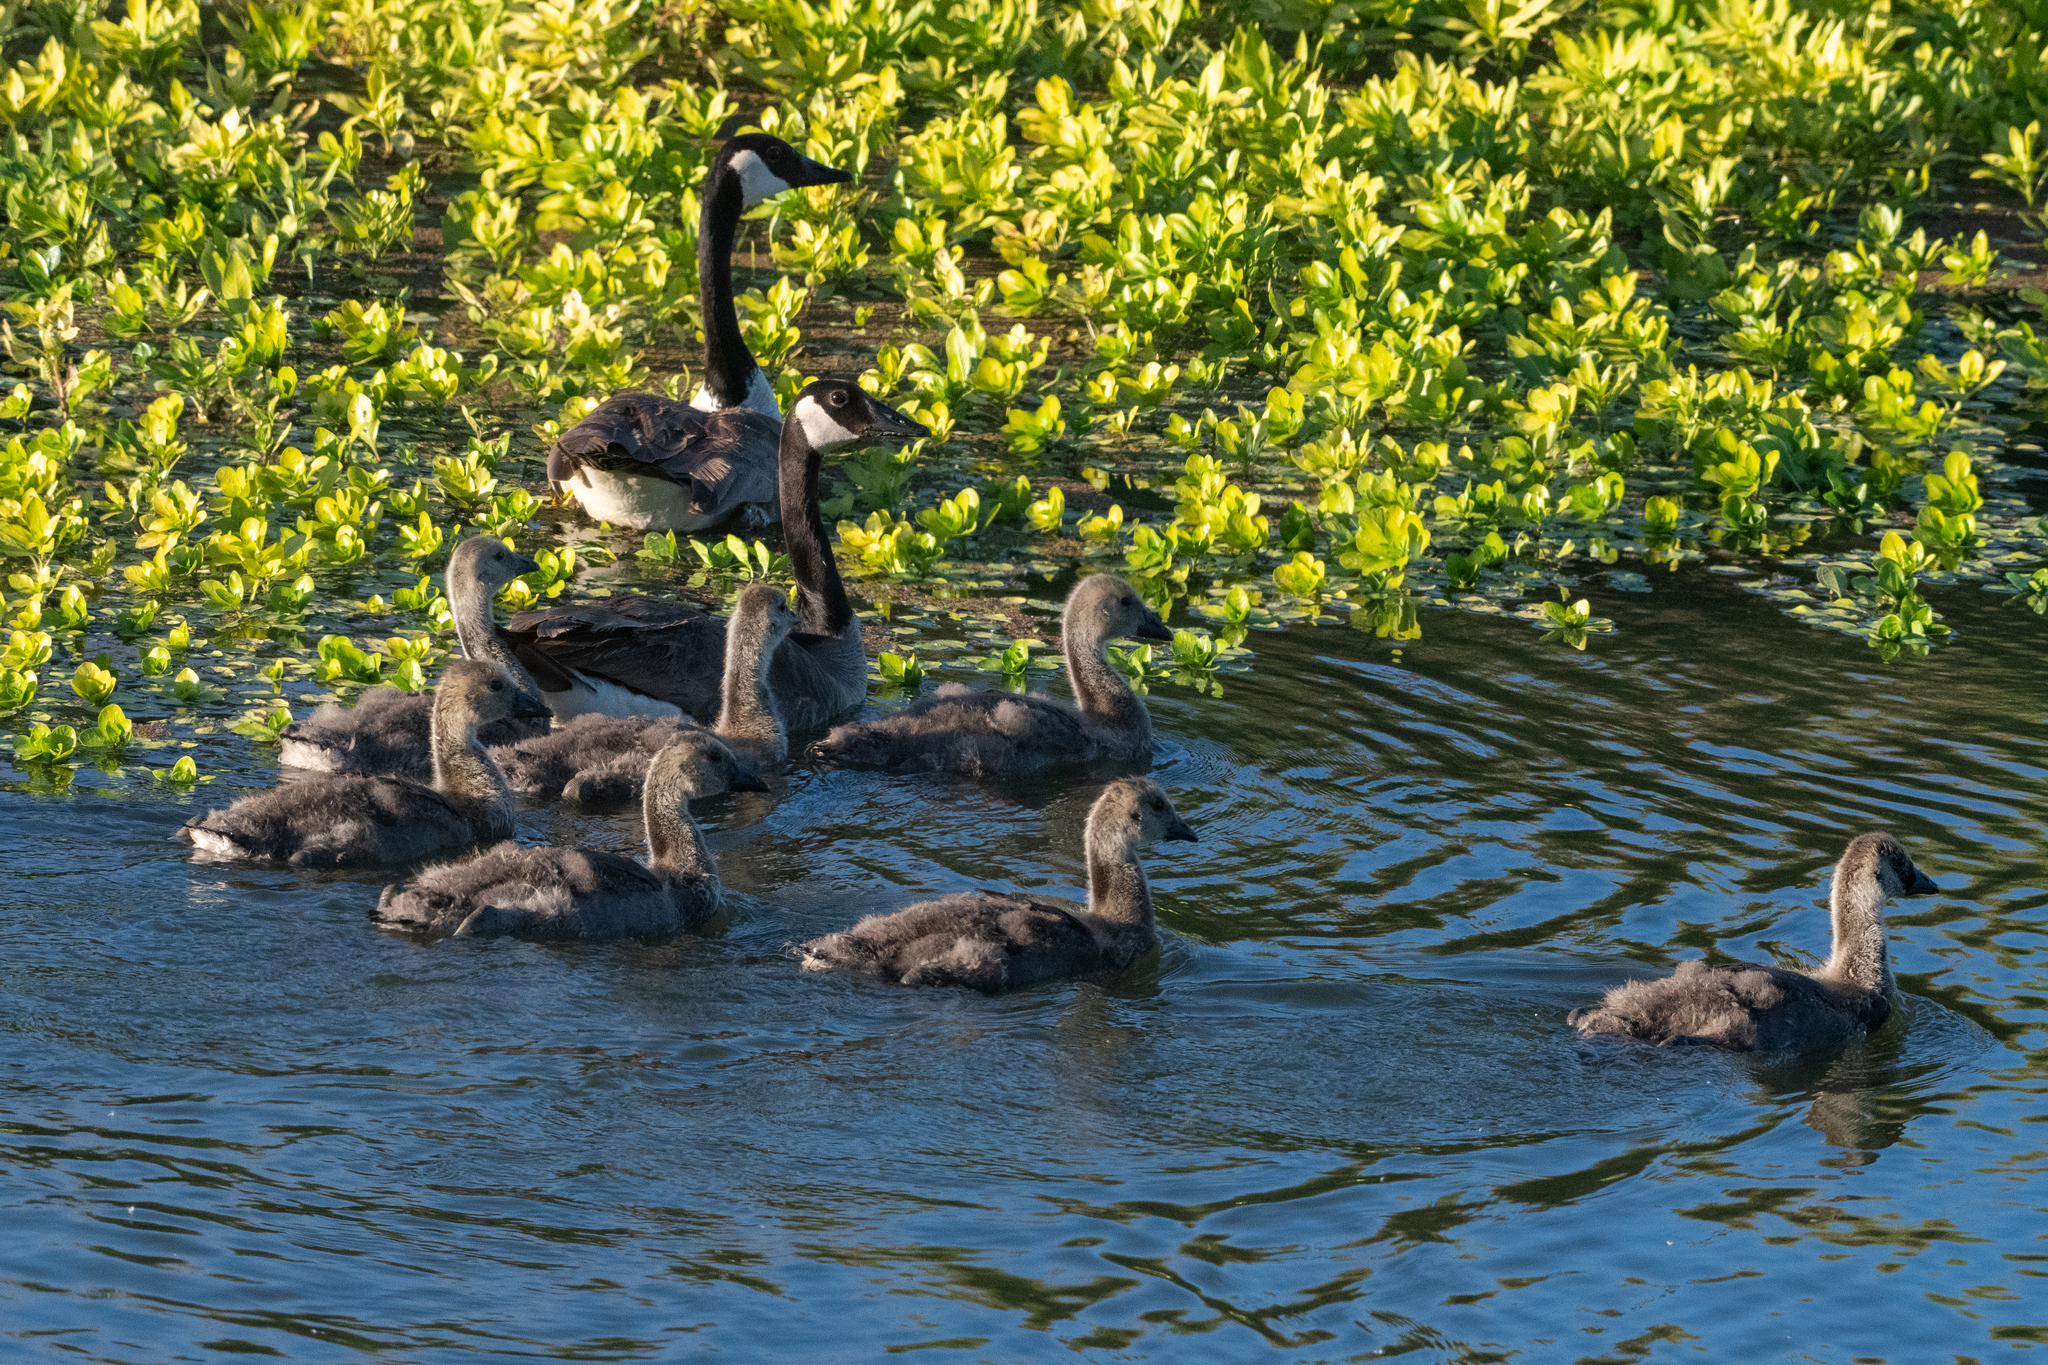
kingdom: Animalia
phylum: Chordata
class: Aves
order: Anseriformes
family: Anatidae
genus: Branta
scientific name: Branta canadensis
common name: Canada goose
